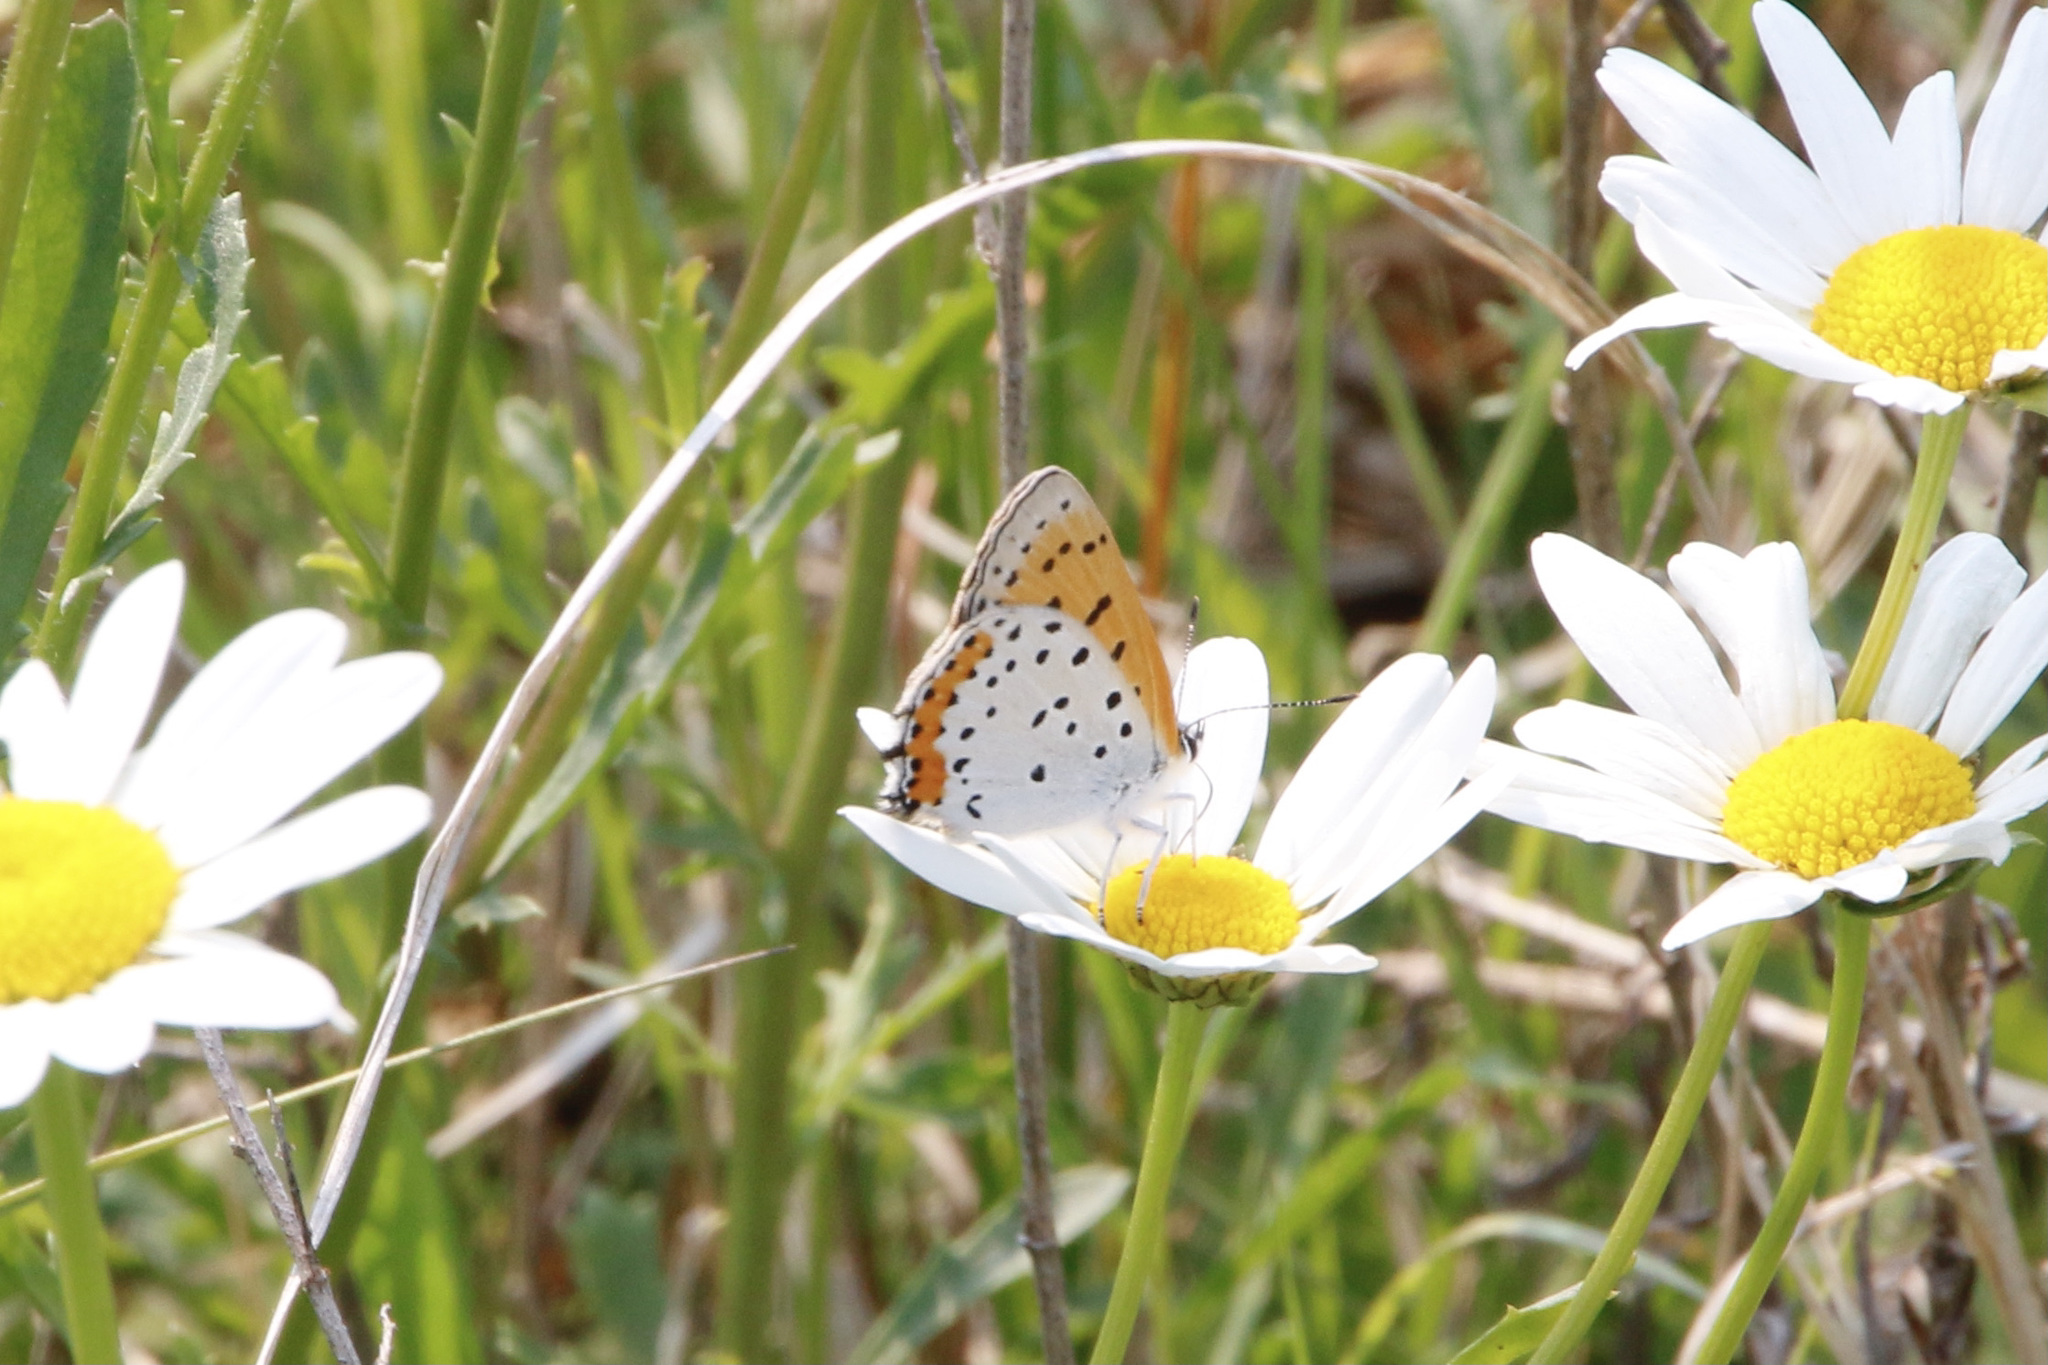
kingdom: Animalia
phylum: Arthropoda
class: Insecta
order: Lepidoptera
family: Lycaenidae
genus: Tharsalea
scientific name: Tharsalea hyllus
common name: Bronze copper
